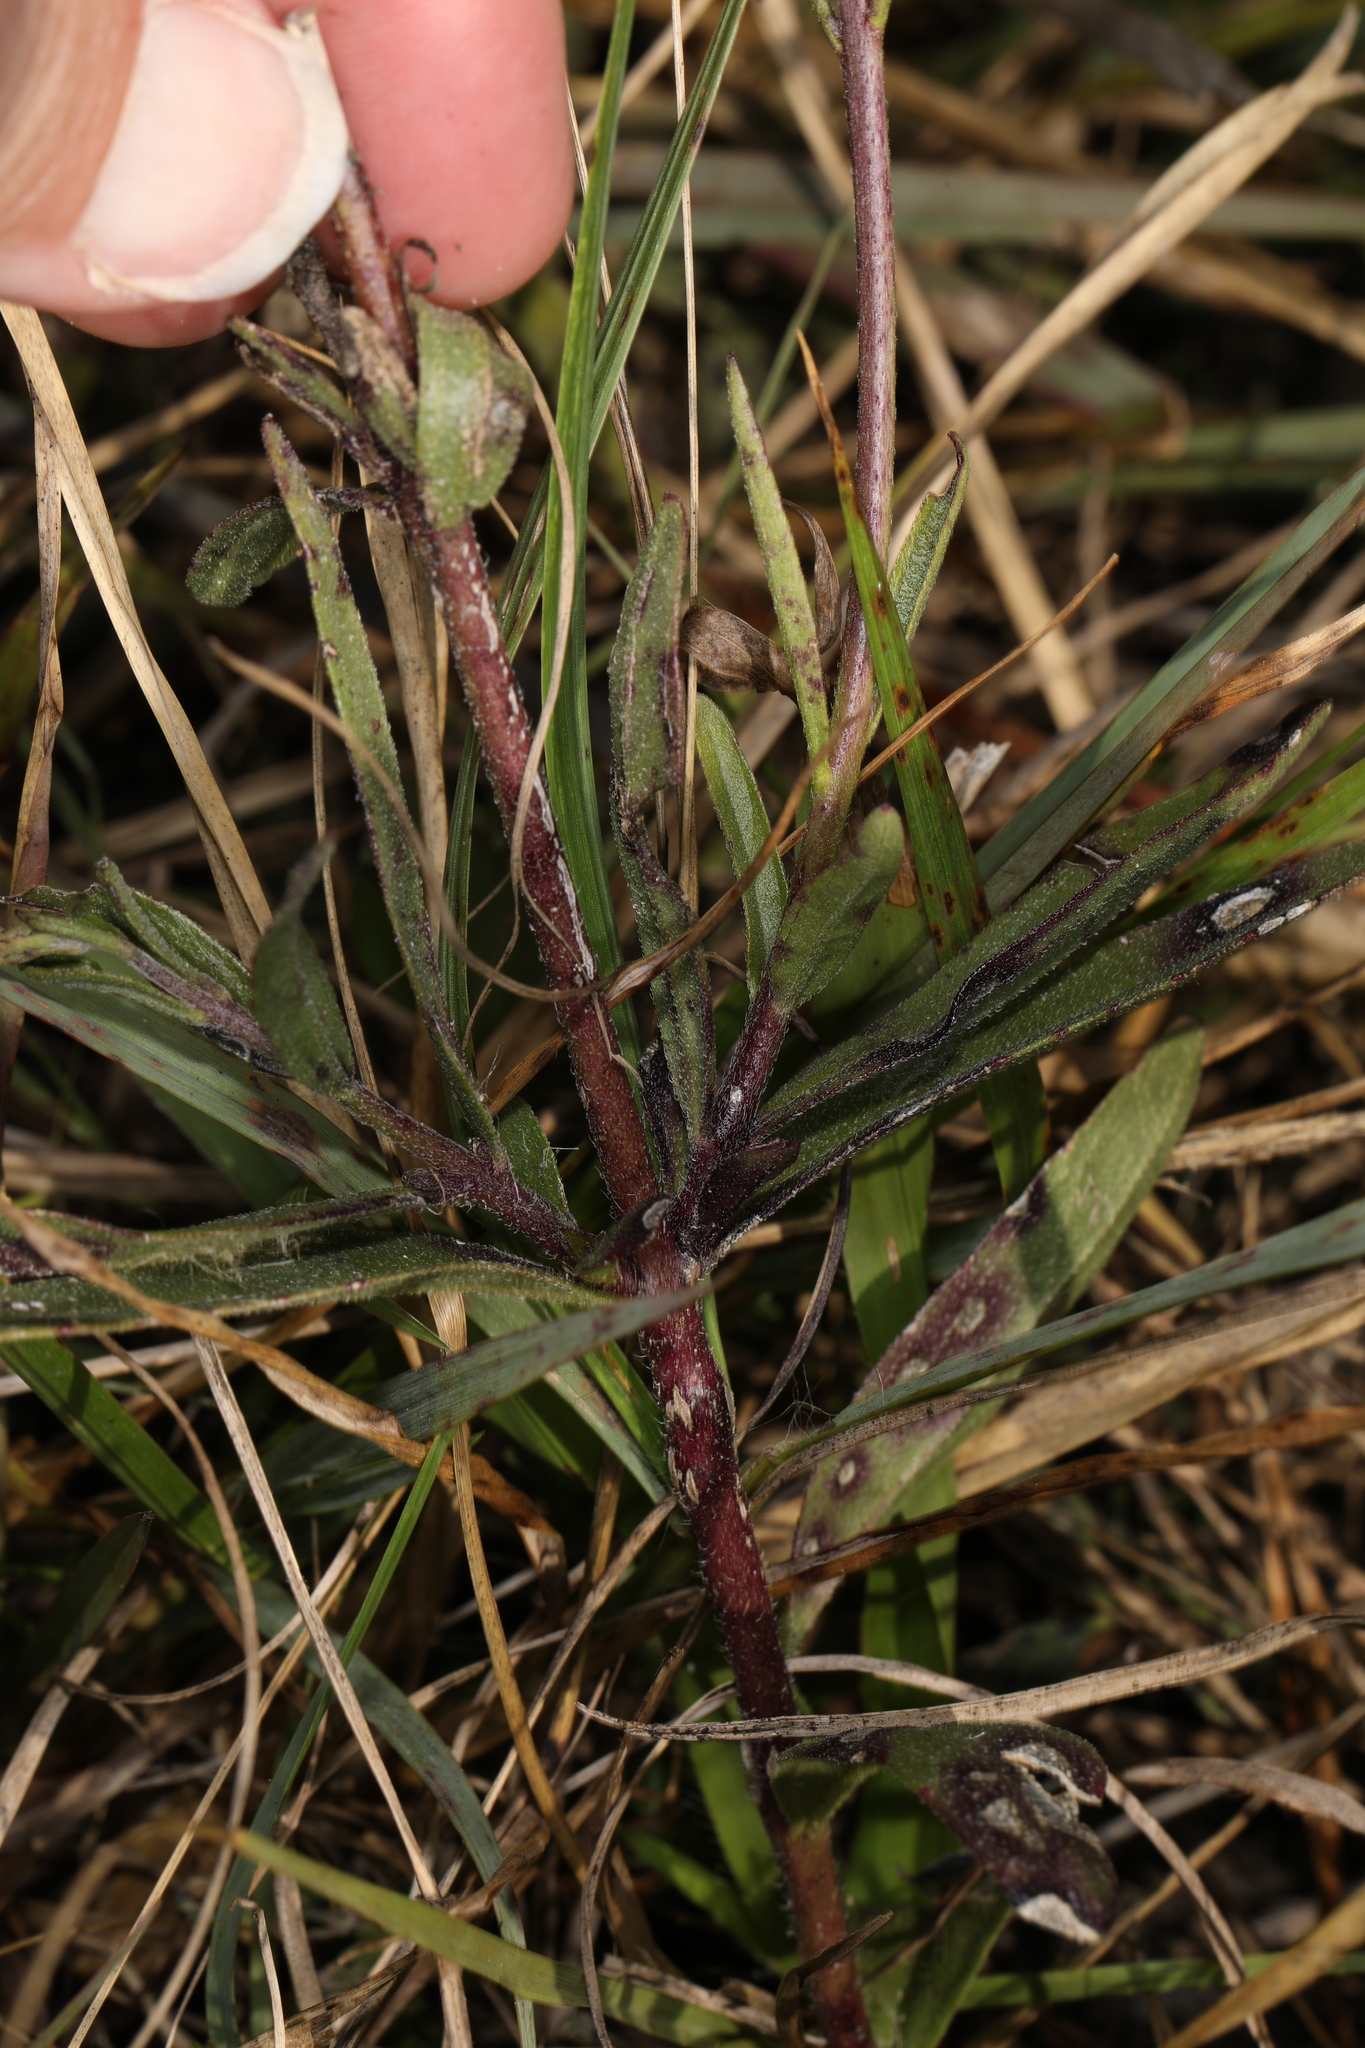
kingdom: Plantae
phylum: Tracheophyta
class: Magnoliopsida
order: Lamiales
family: Orobanchaceae
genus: Buchnera
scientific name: Buchnera floridana
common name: Florida bluehearts
